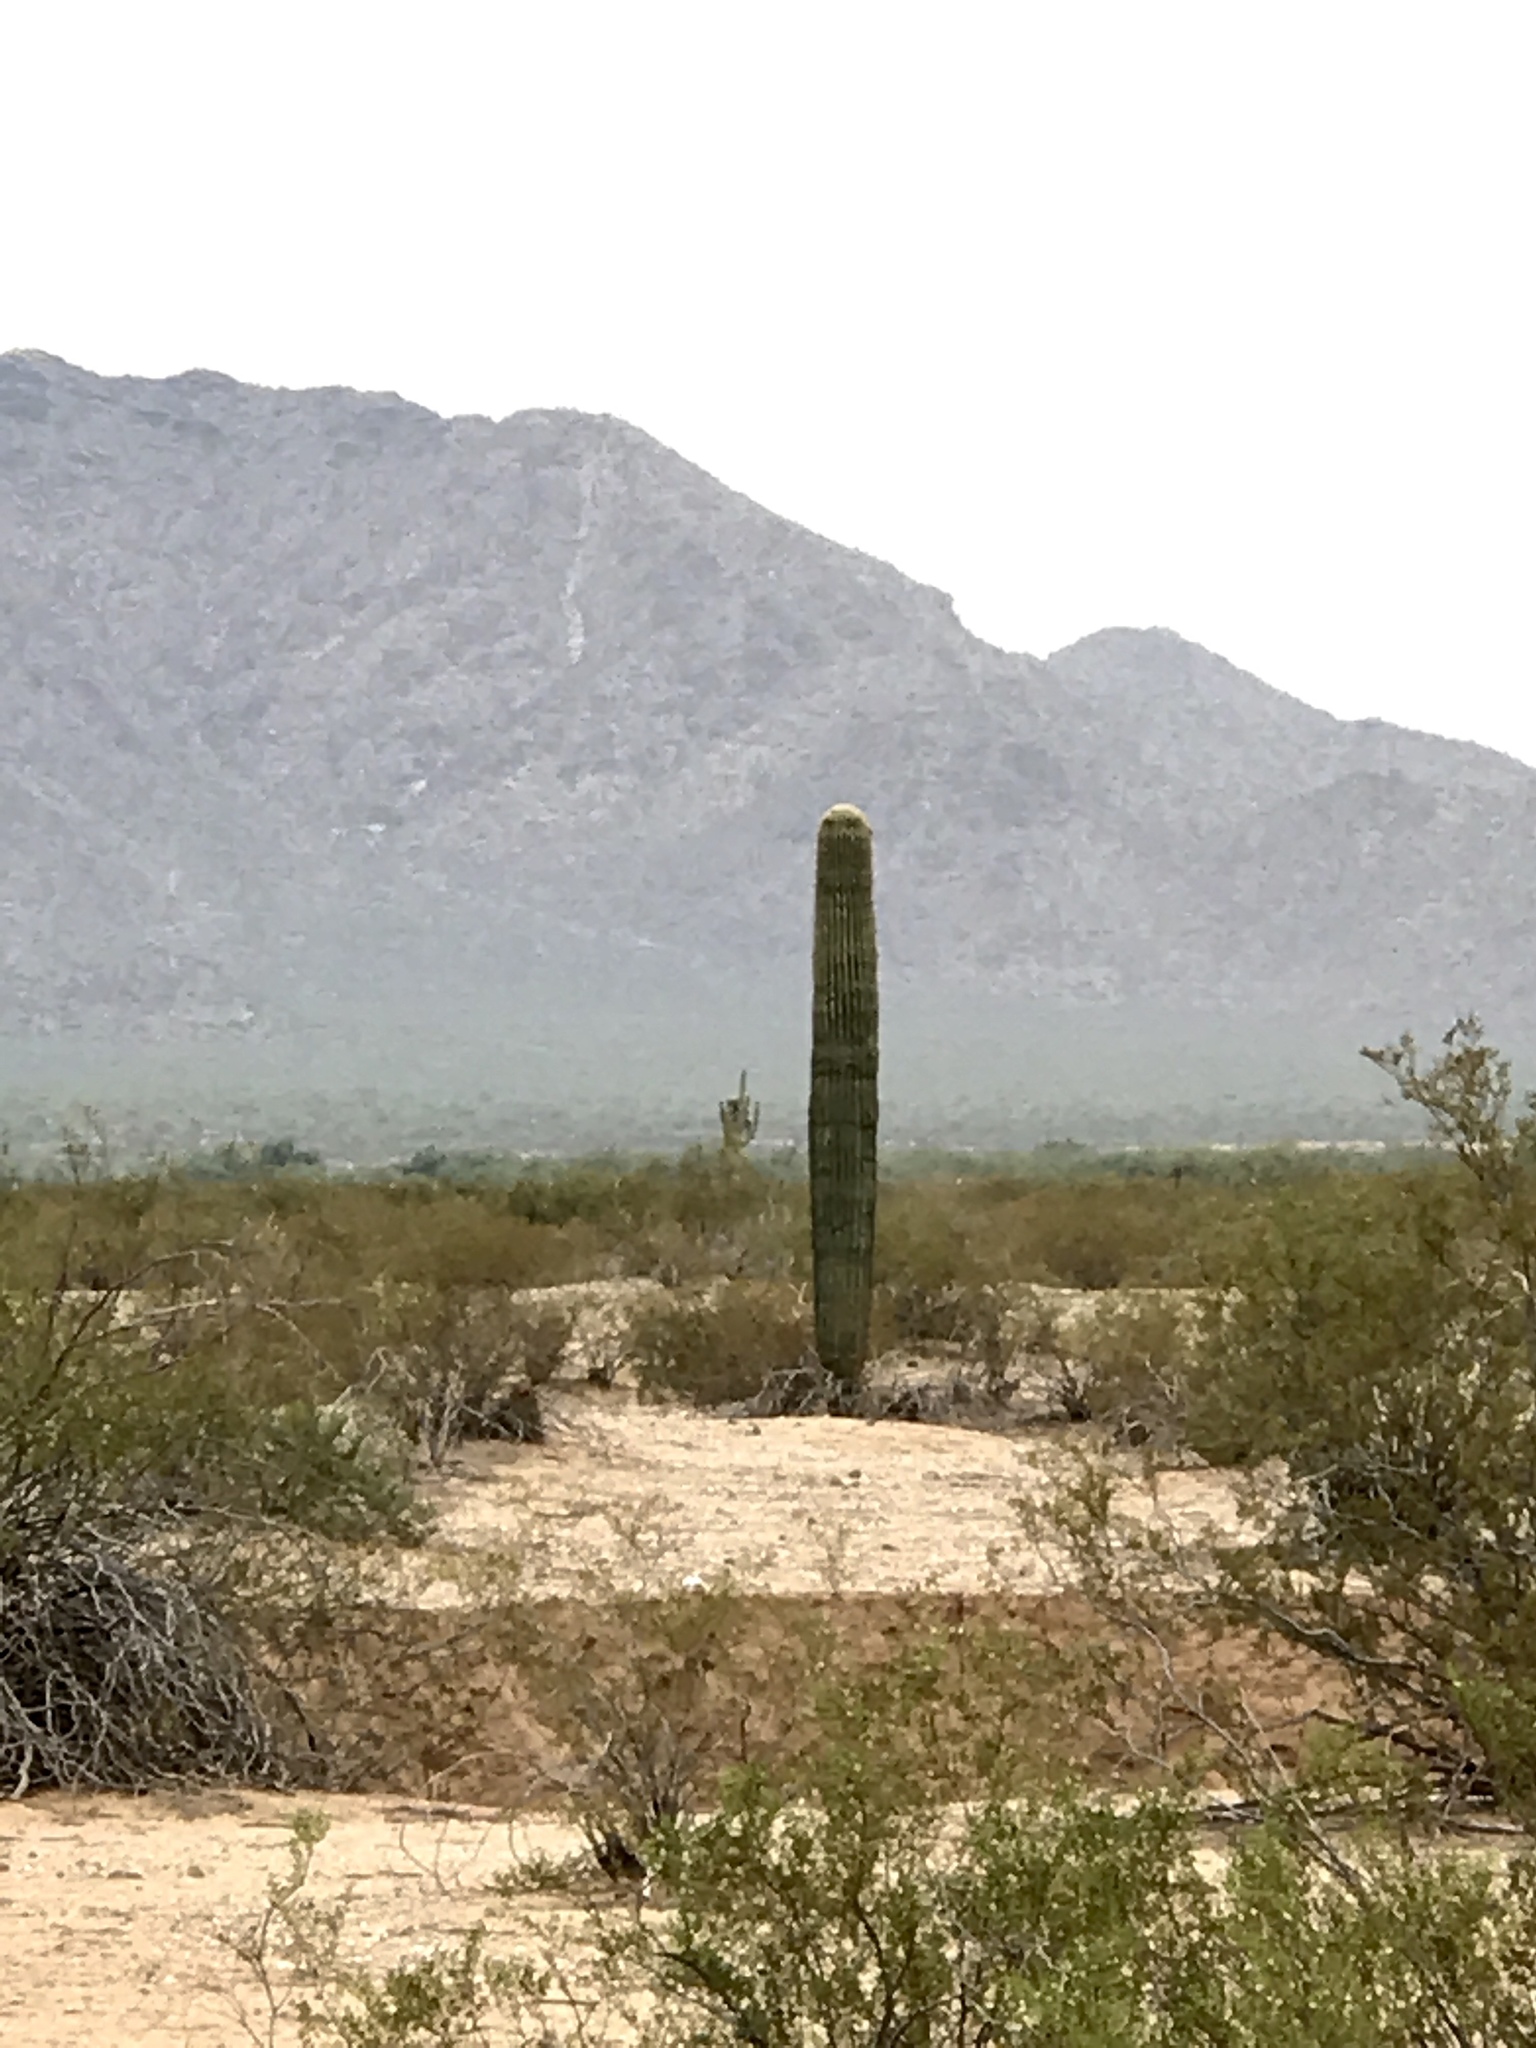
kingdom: Plantae
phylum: Tracheophyta
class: Magnoliopsida
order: Caryophyllales
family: Cactaceae
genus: Carnegiea
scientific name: Carnegiea gigantea
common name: Saguaro
